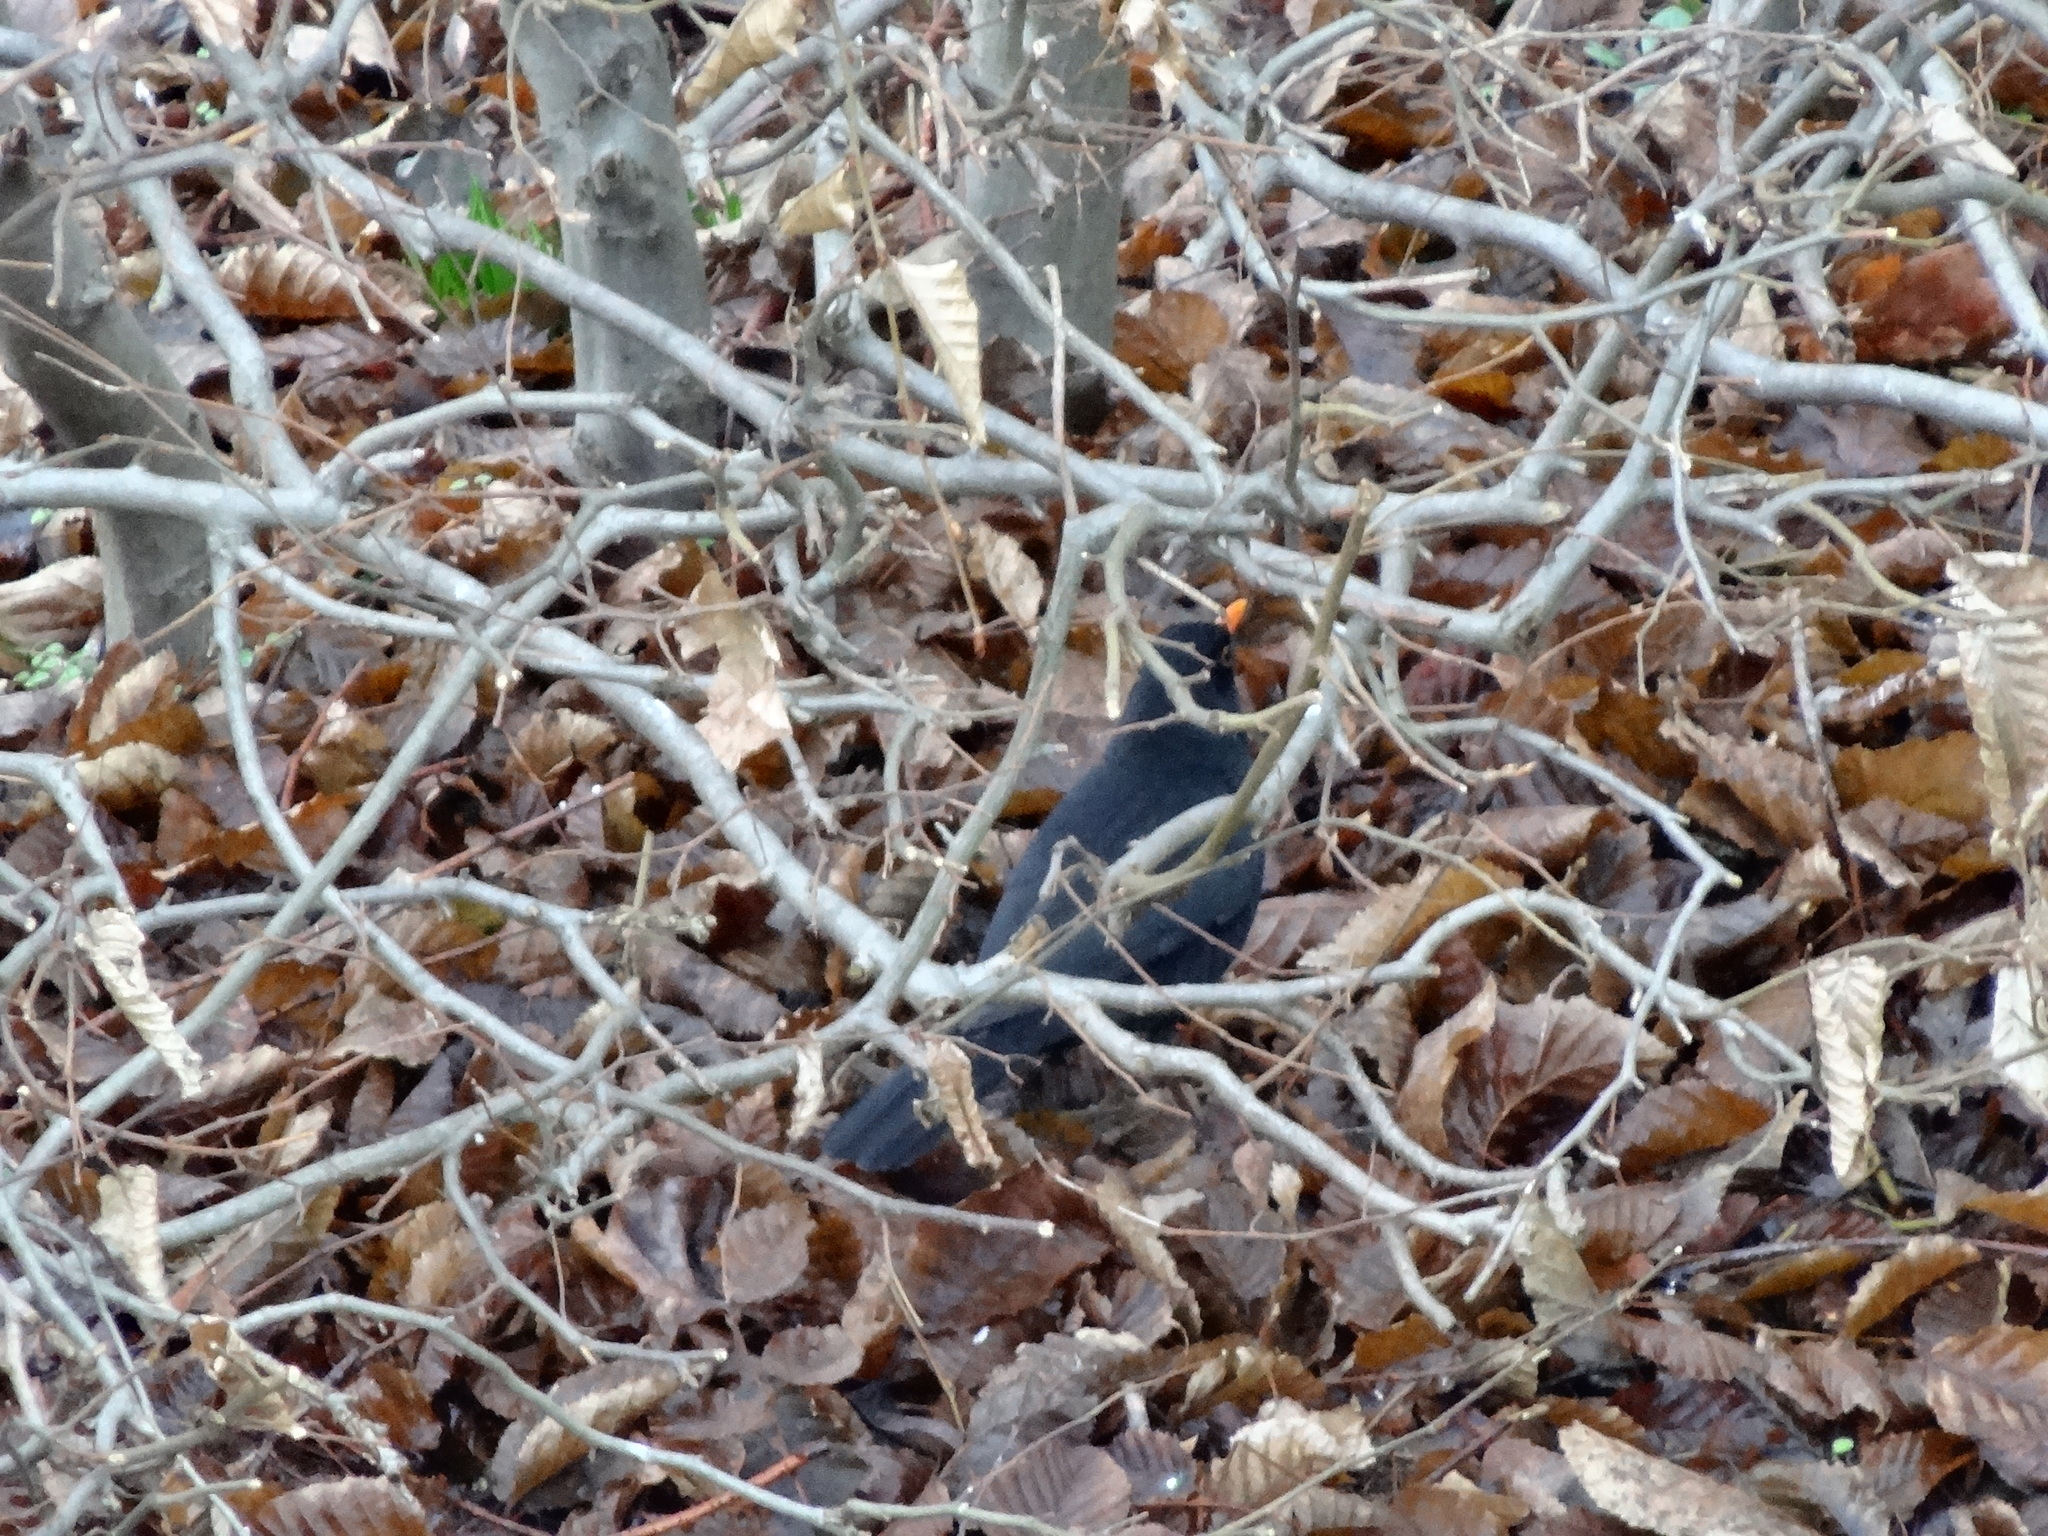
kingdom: Animalia
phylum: Chordata
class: Aves
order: Passeriformes
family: Turdidae
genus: Turdus
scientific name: Turdus merula
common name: Common blackbird
